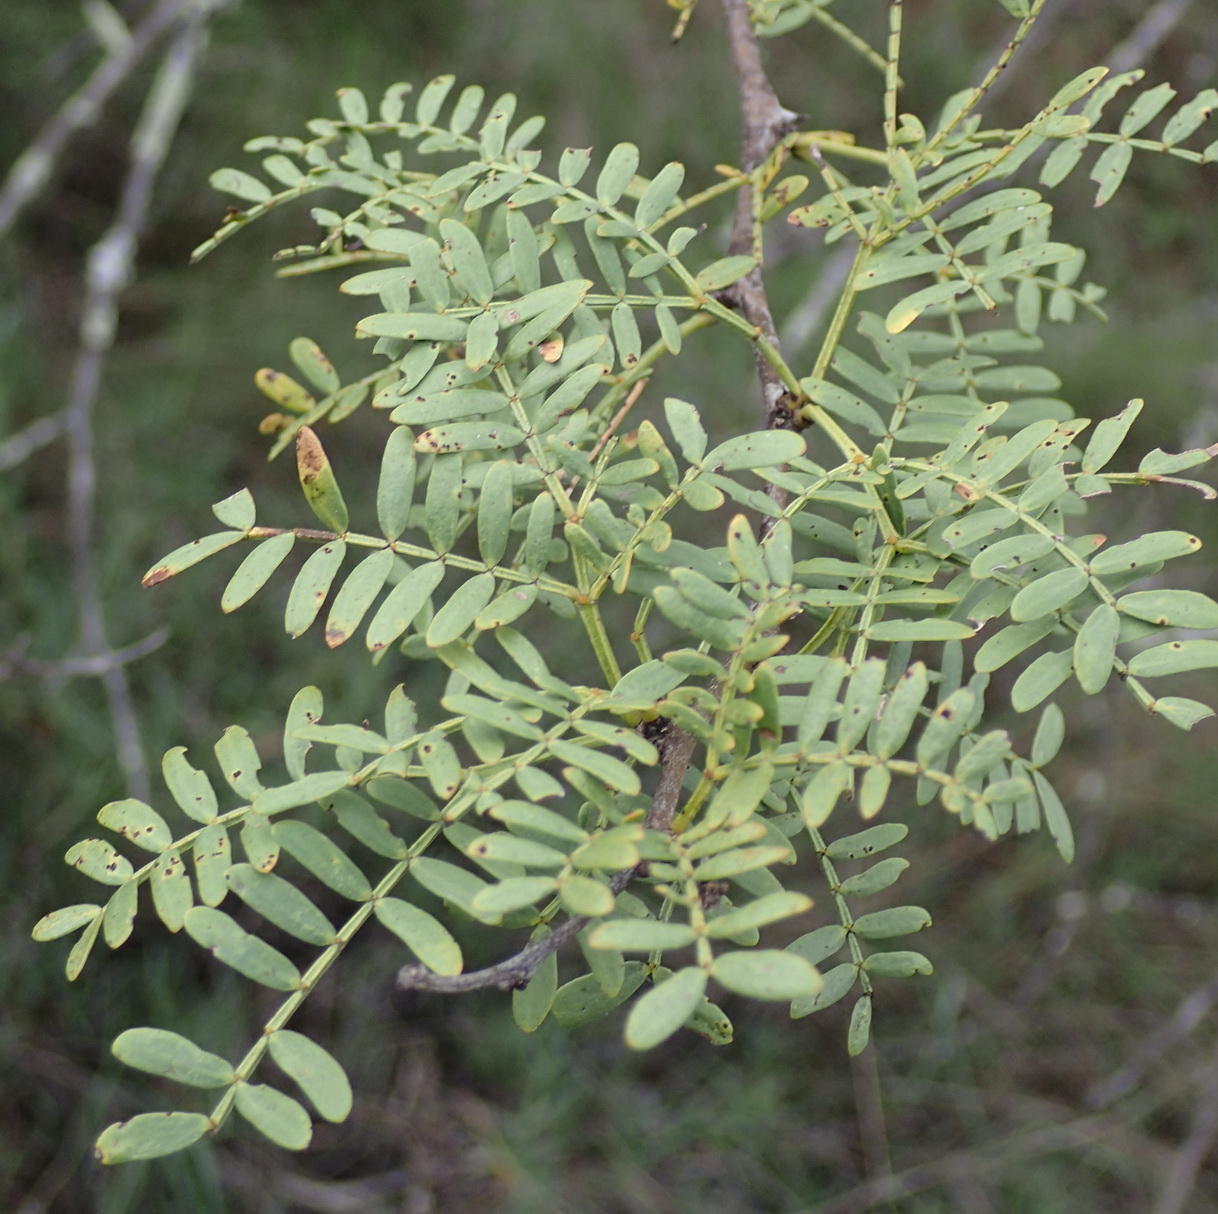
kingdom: Plantae
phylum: Tracheophyta
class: Magnoliopsida
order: Fabales
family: Fabaceae
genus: Vachellia
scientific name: Vachellia karroo
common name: Sweet thorn
